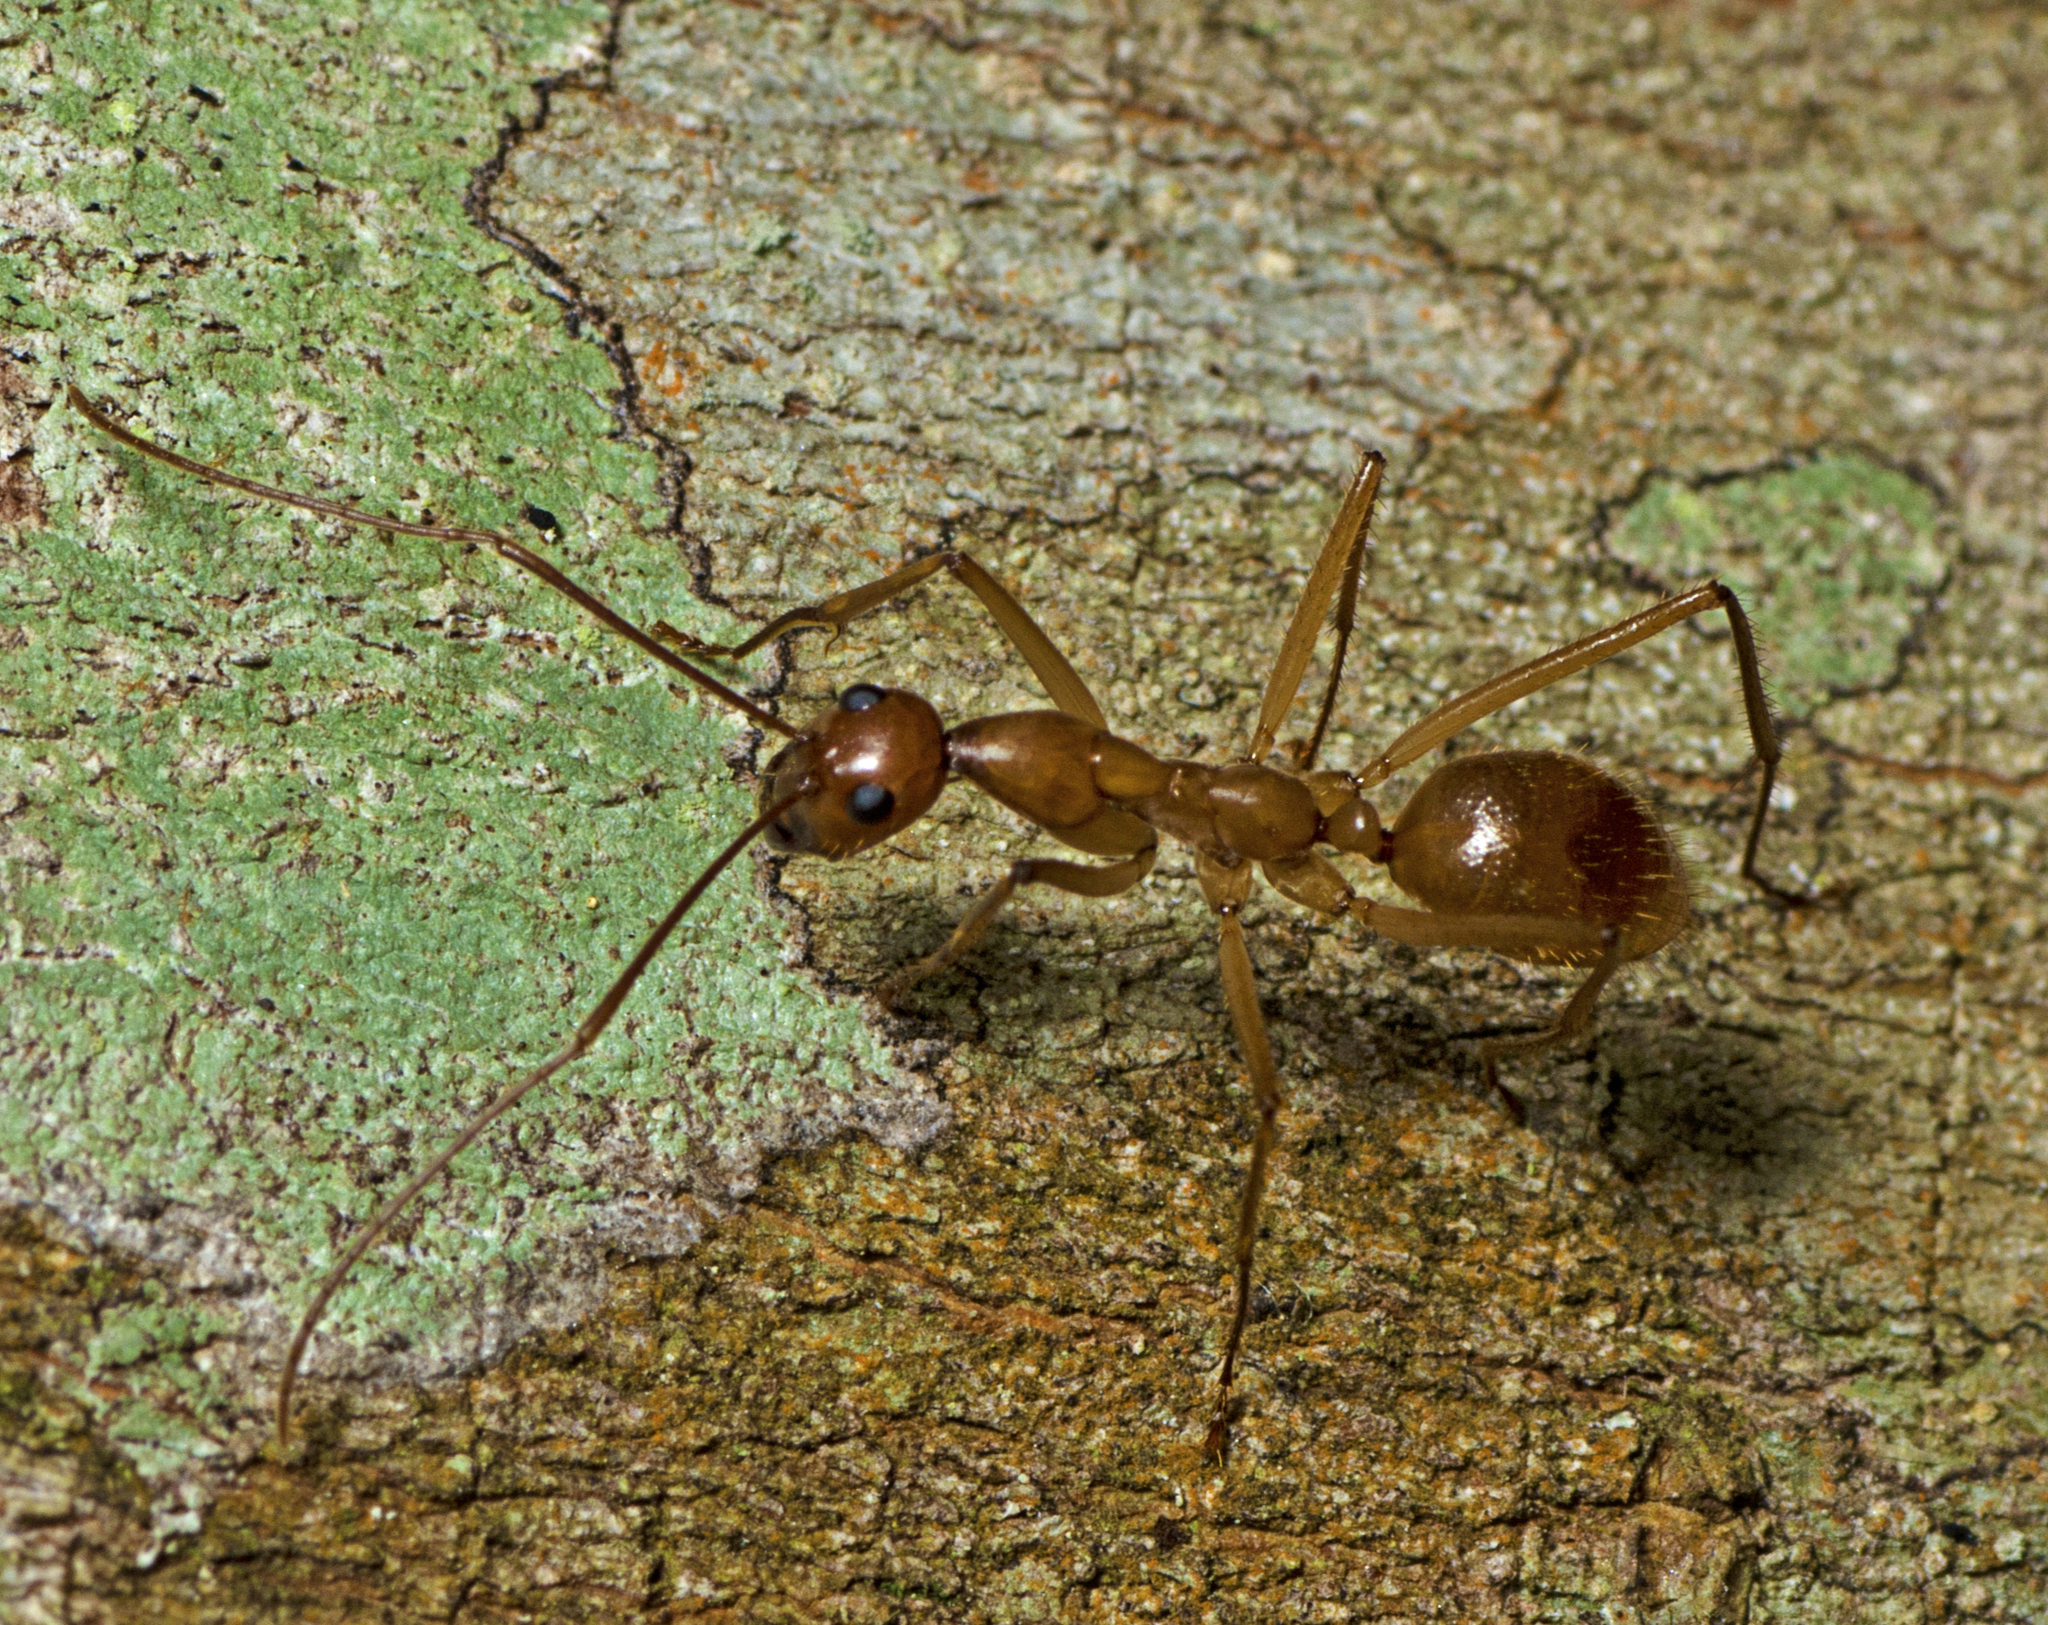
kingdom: Animalia
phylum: Arthropoda
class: Insecta
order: Hymenoptera
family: Formicidae
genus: Notostigma
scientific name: Notostigma foreli
